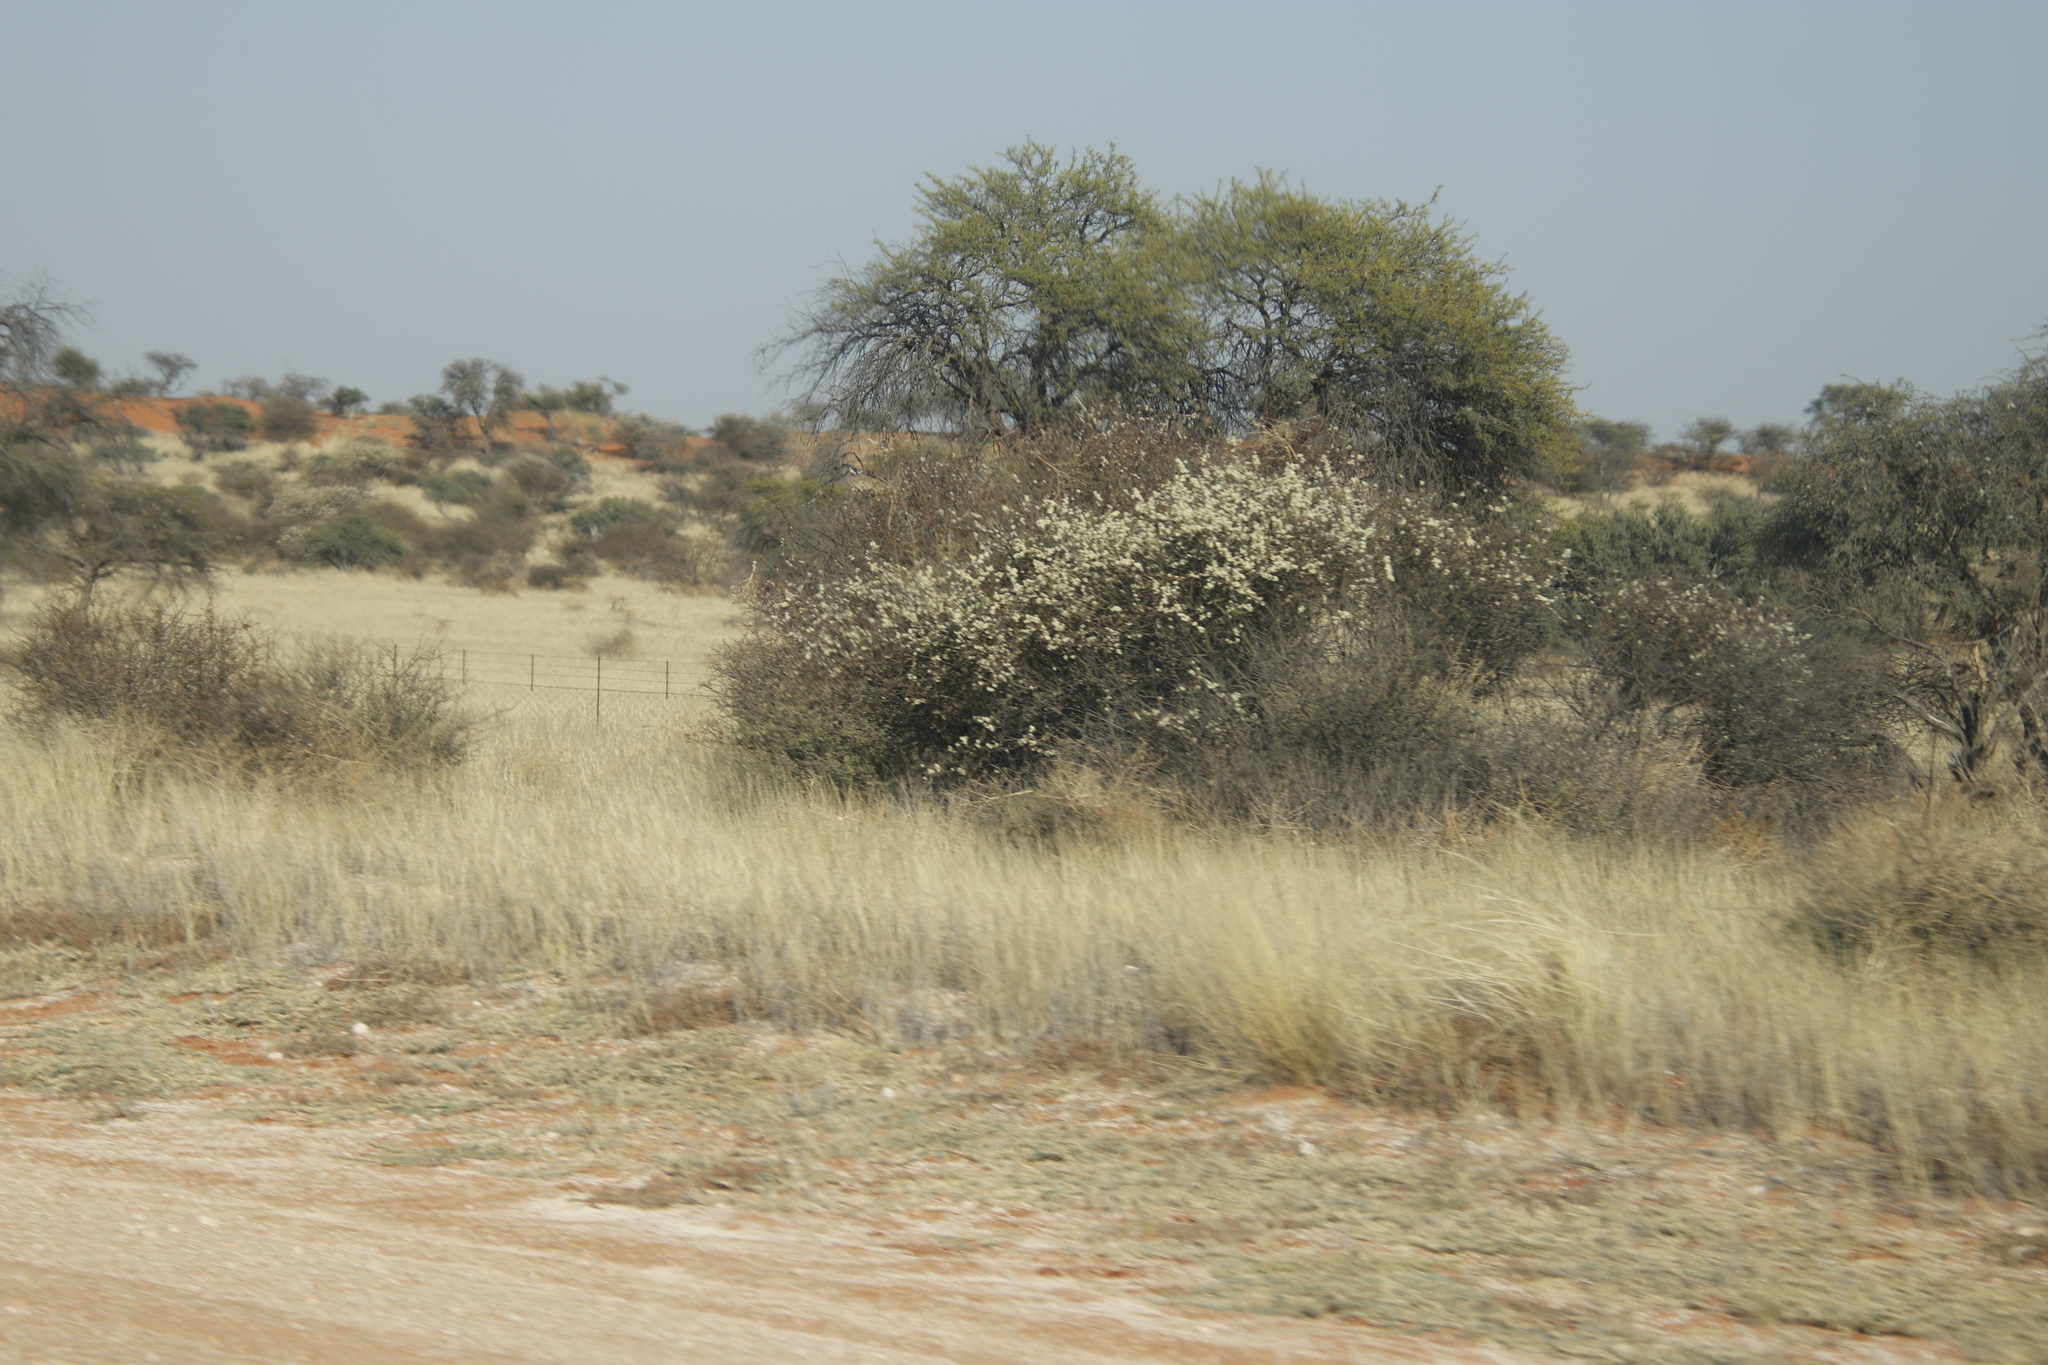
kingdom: Plantae
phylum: Tracheophyta
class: Magnoliopsida
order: Fabales
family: Fabaceae
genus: Senegalia
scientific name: Senegalia mellifera
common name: Hookthorn
